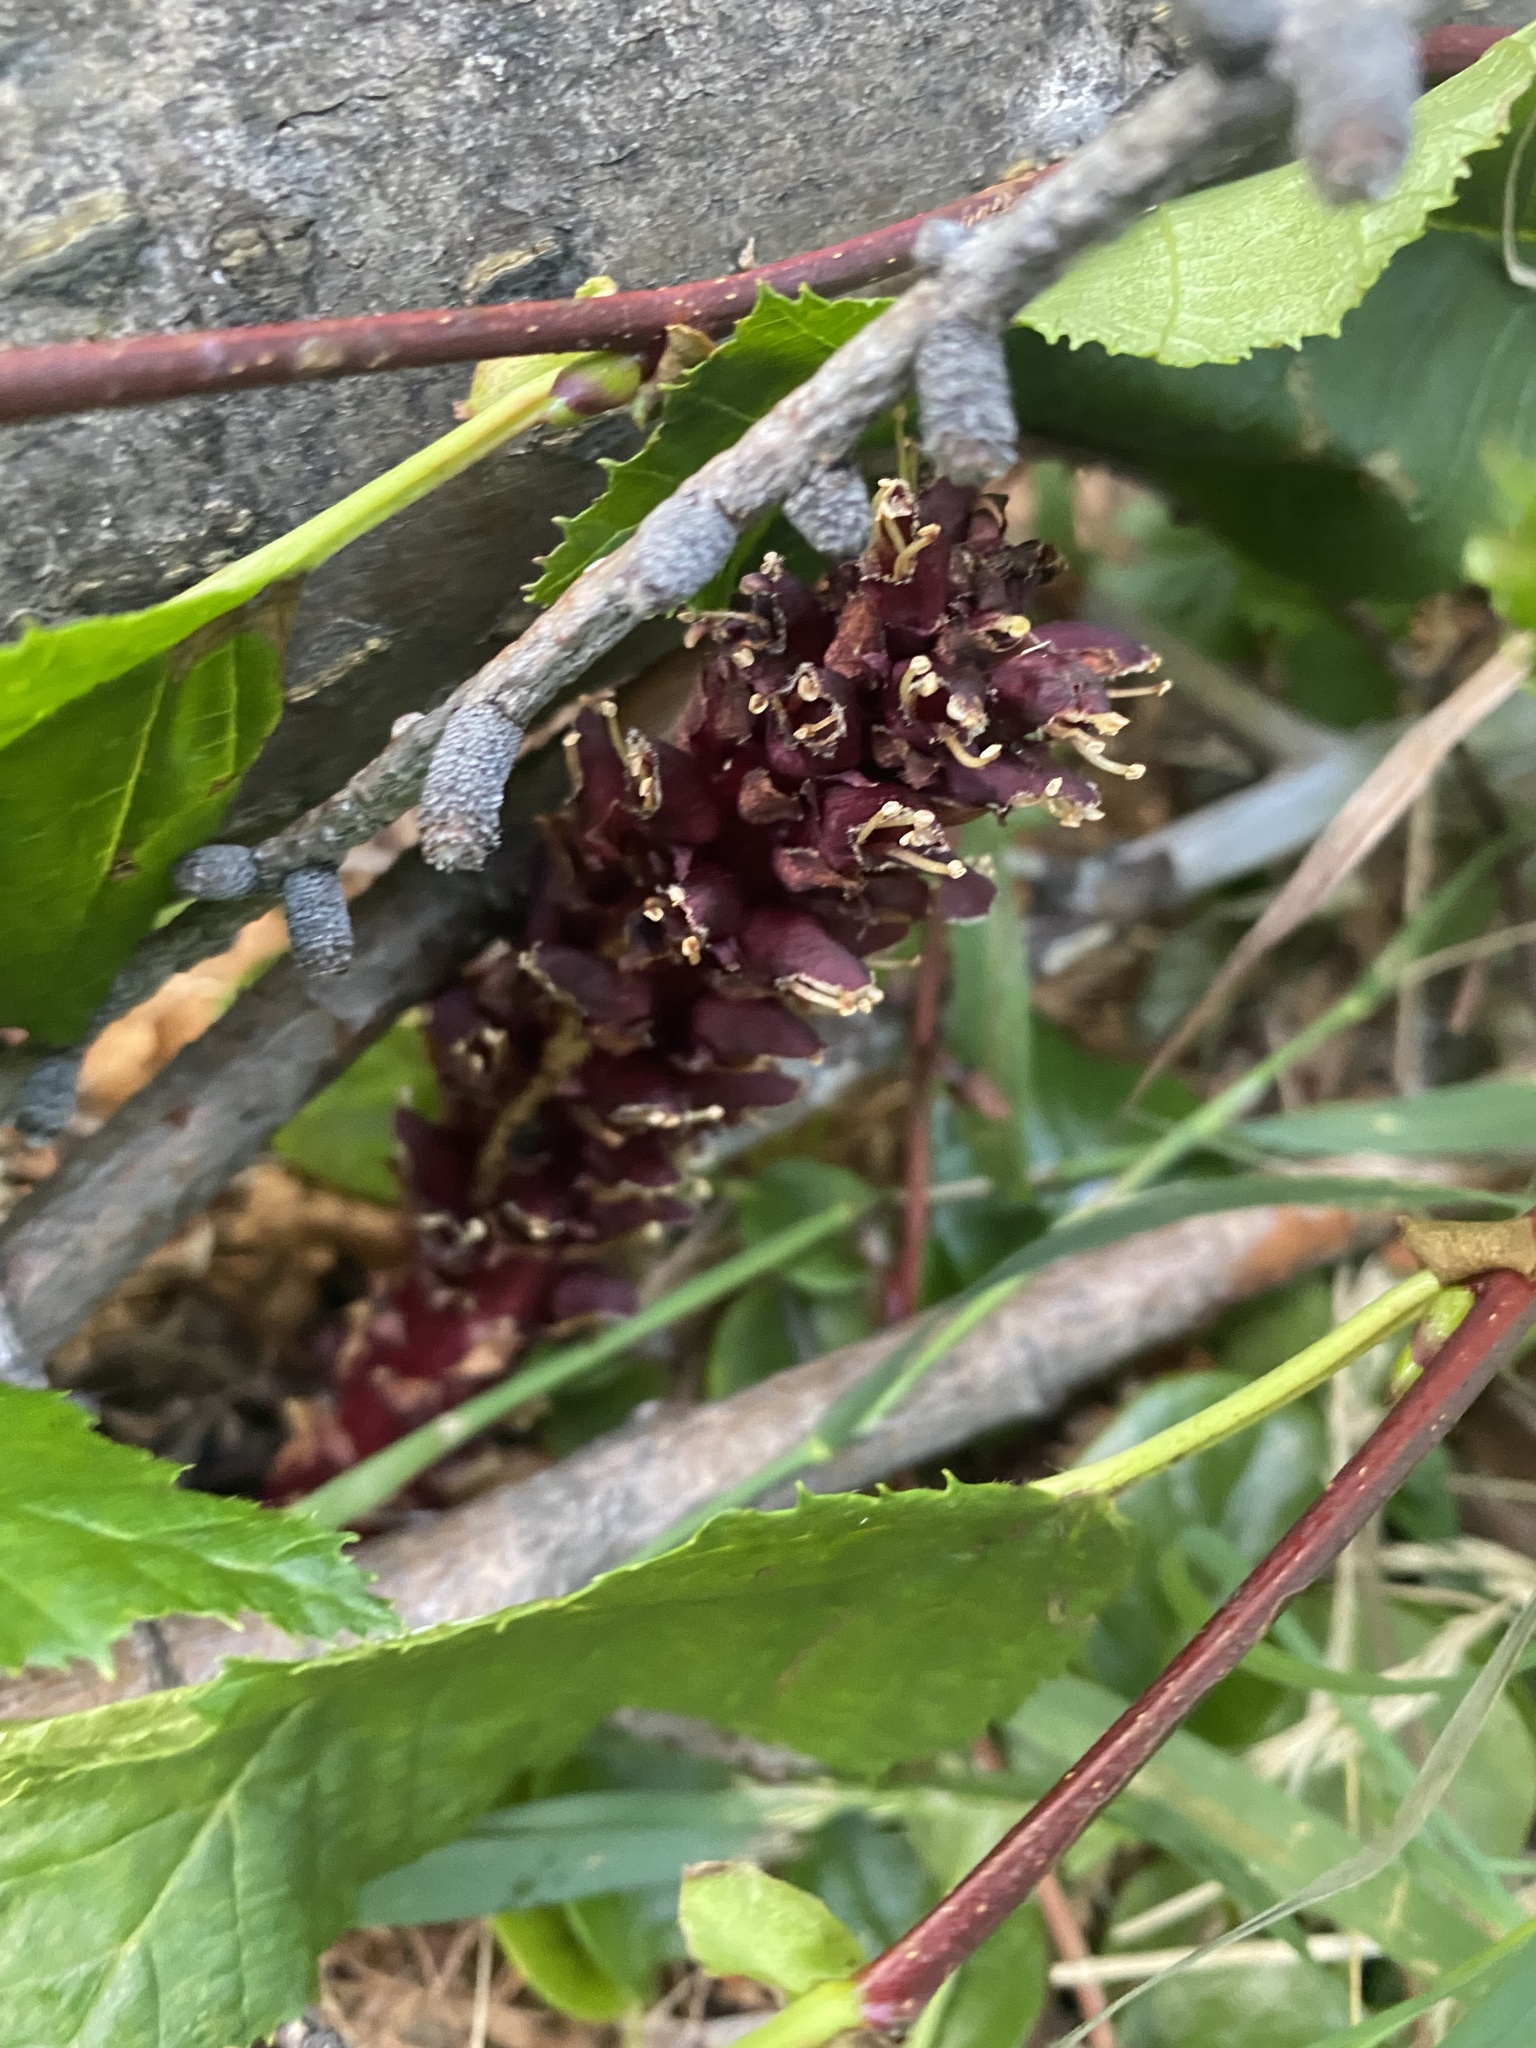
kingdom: Plantae
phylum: Tracheophyta
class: Magnoliopsida
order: Lamiales
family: Orobanchaceae
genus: Boschniakia
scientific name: Boschniakia rossica
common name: Poque
